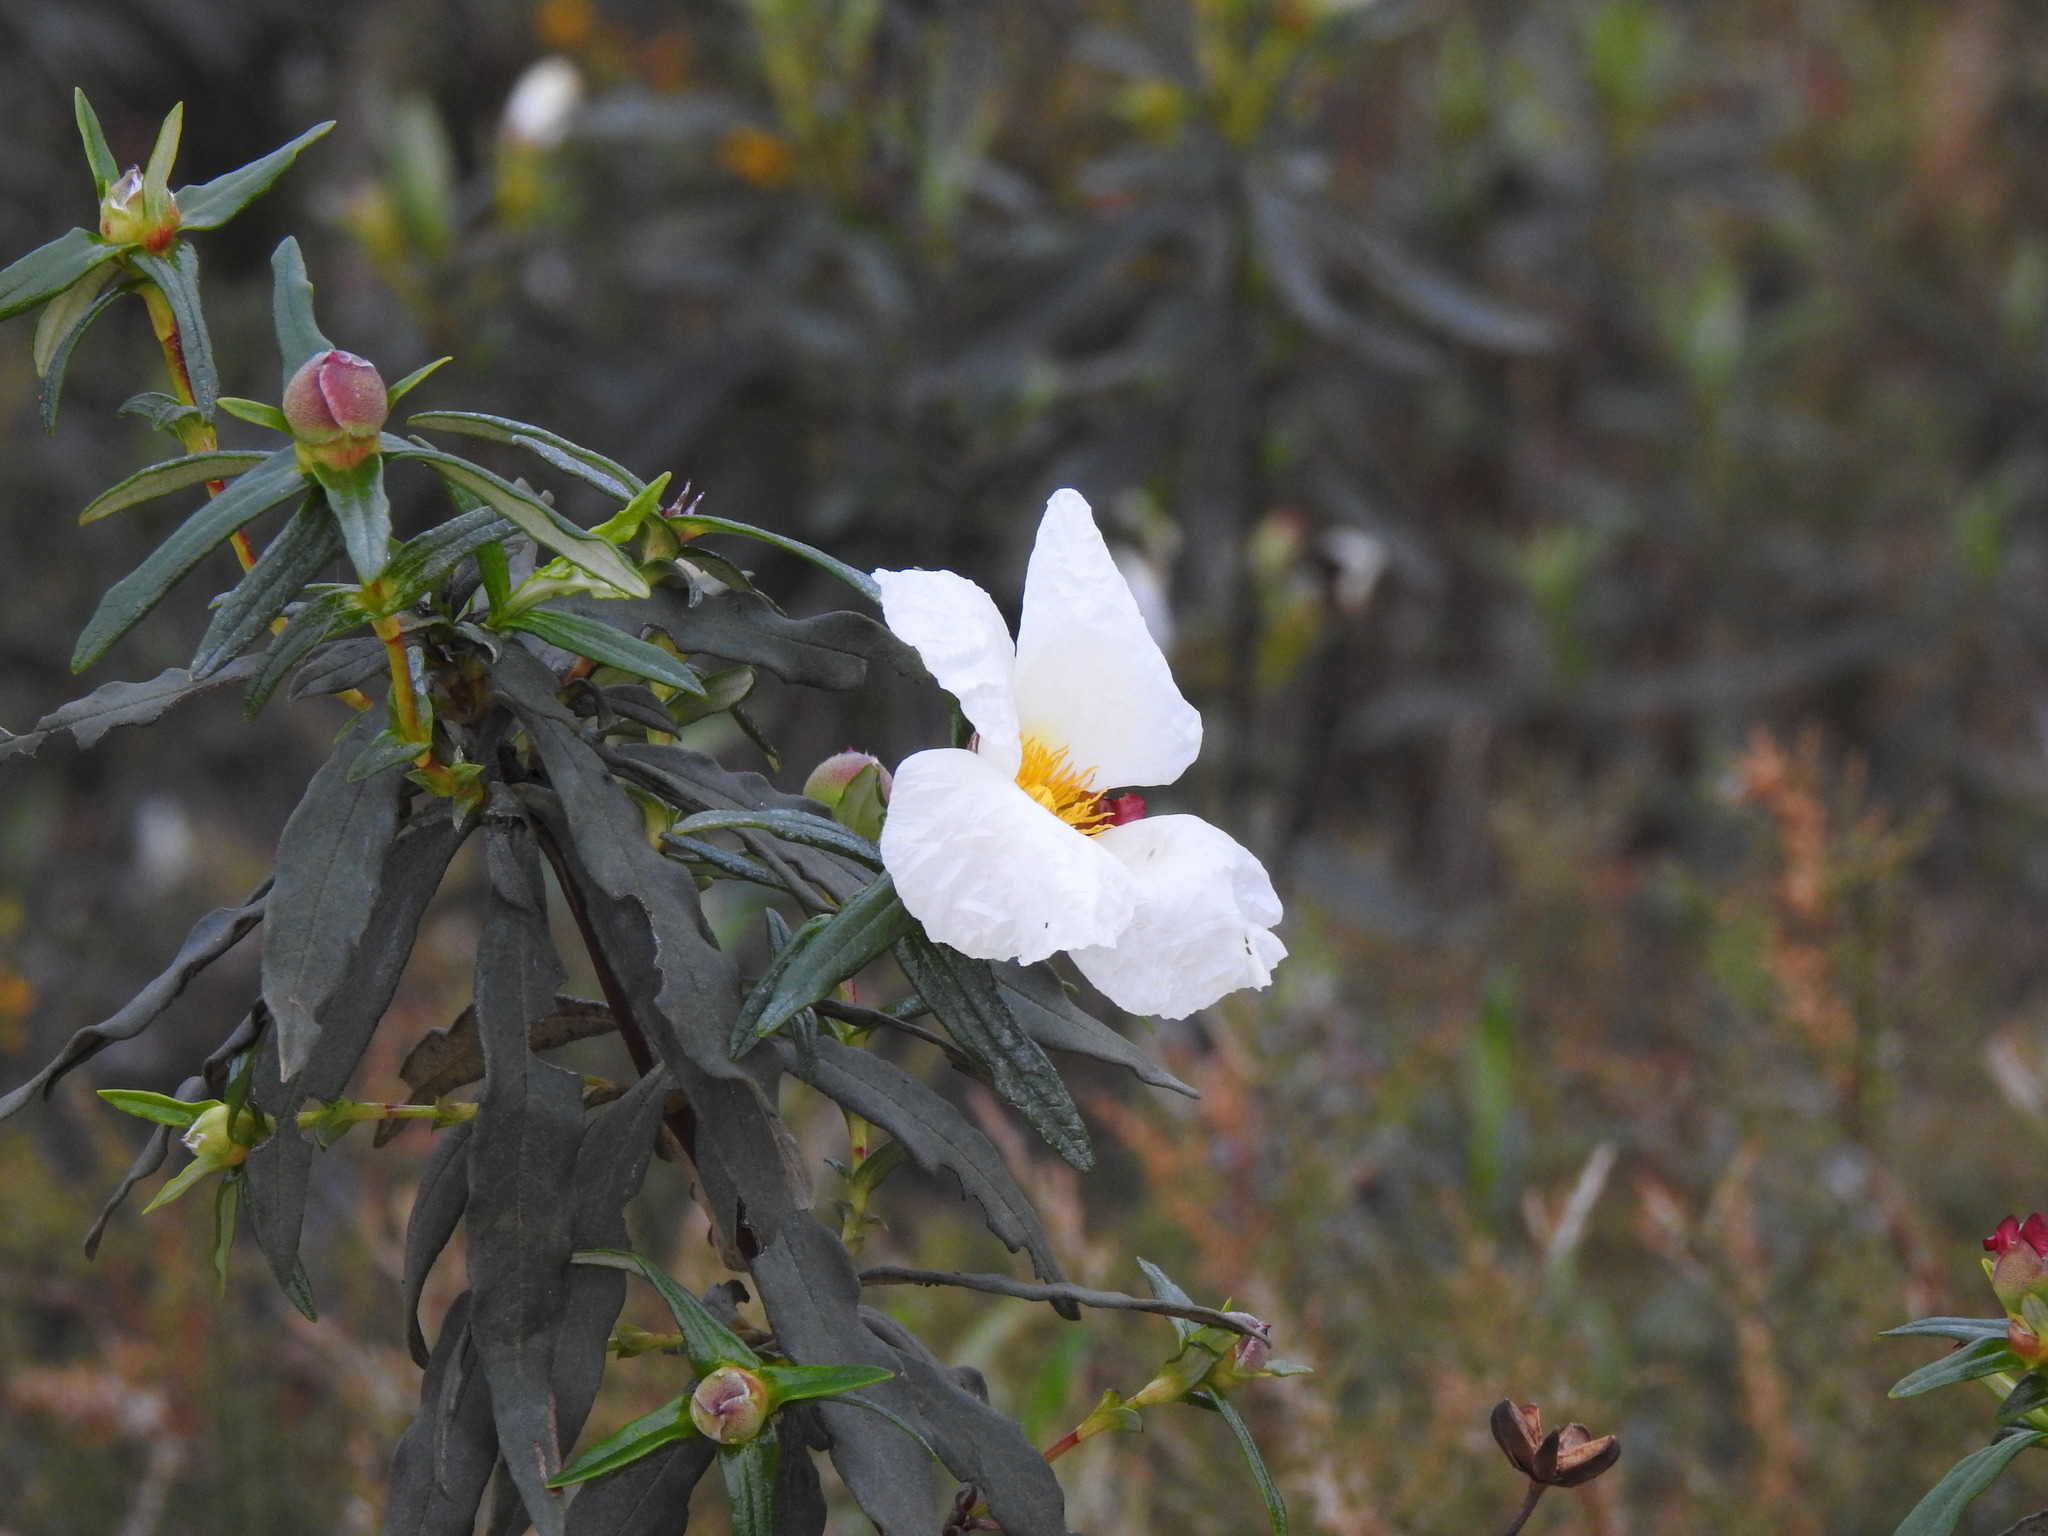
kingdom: Plantae
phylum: Tracheophyta
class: Magnoliopsida
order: Malvales
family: Cistaceae
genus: Cistus
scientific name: Cistus ladanifer
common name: Common gum cistus
